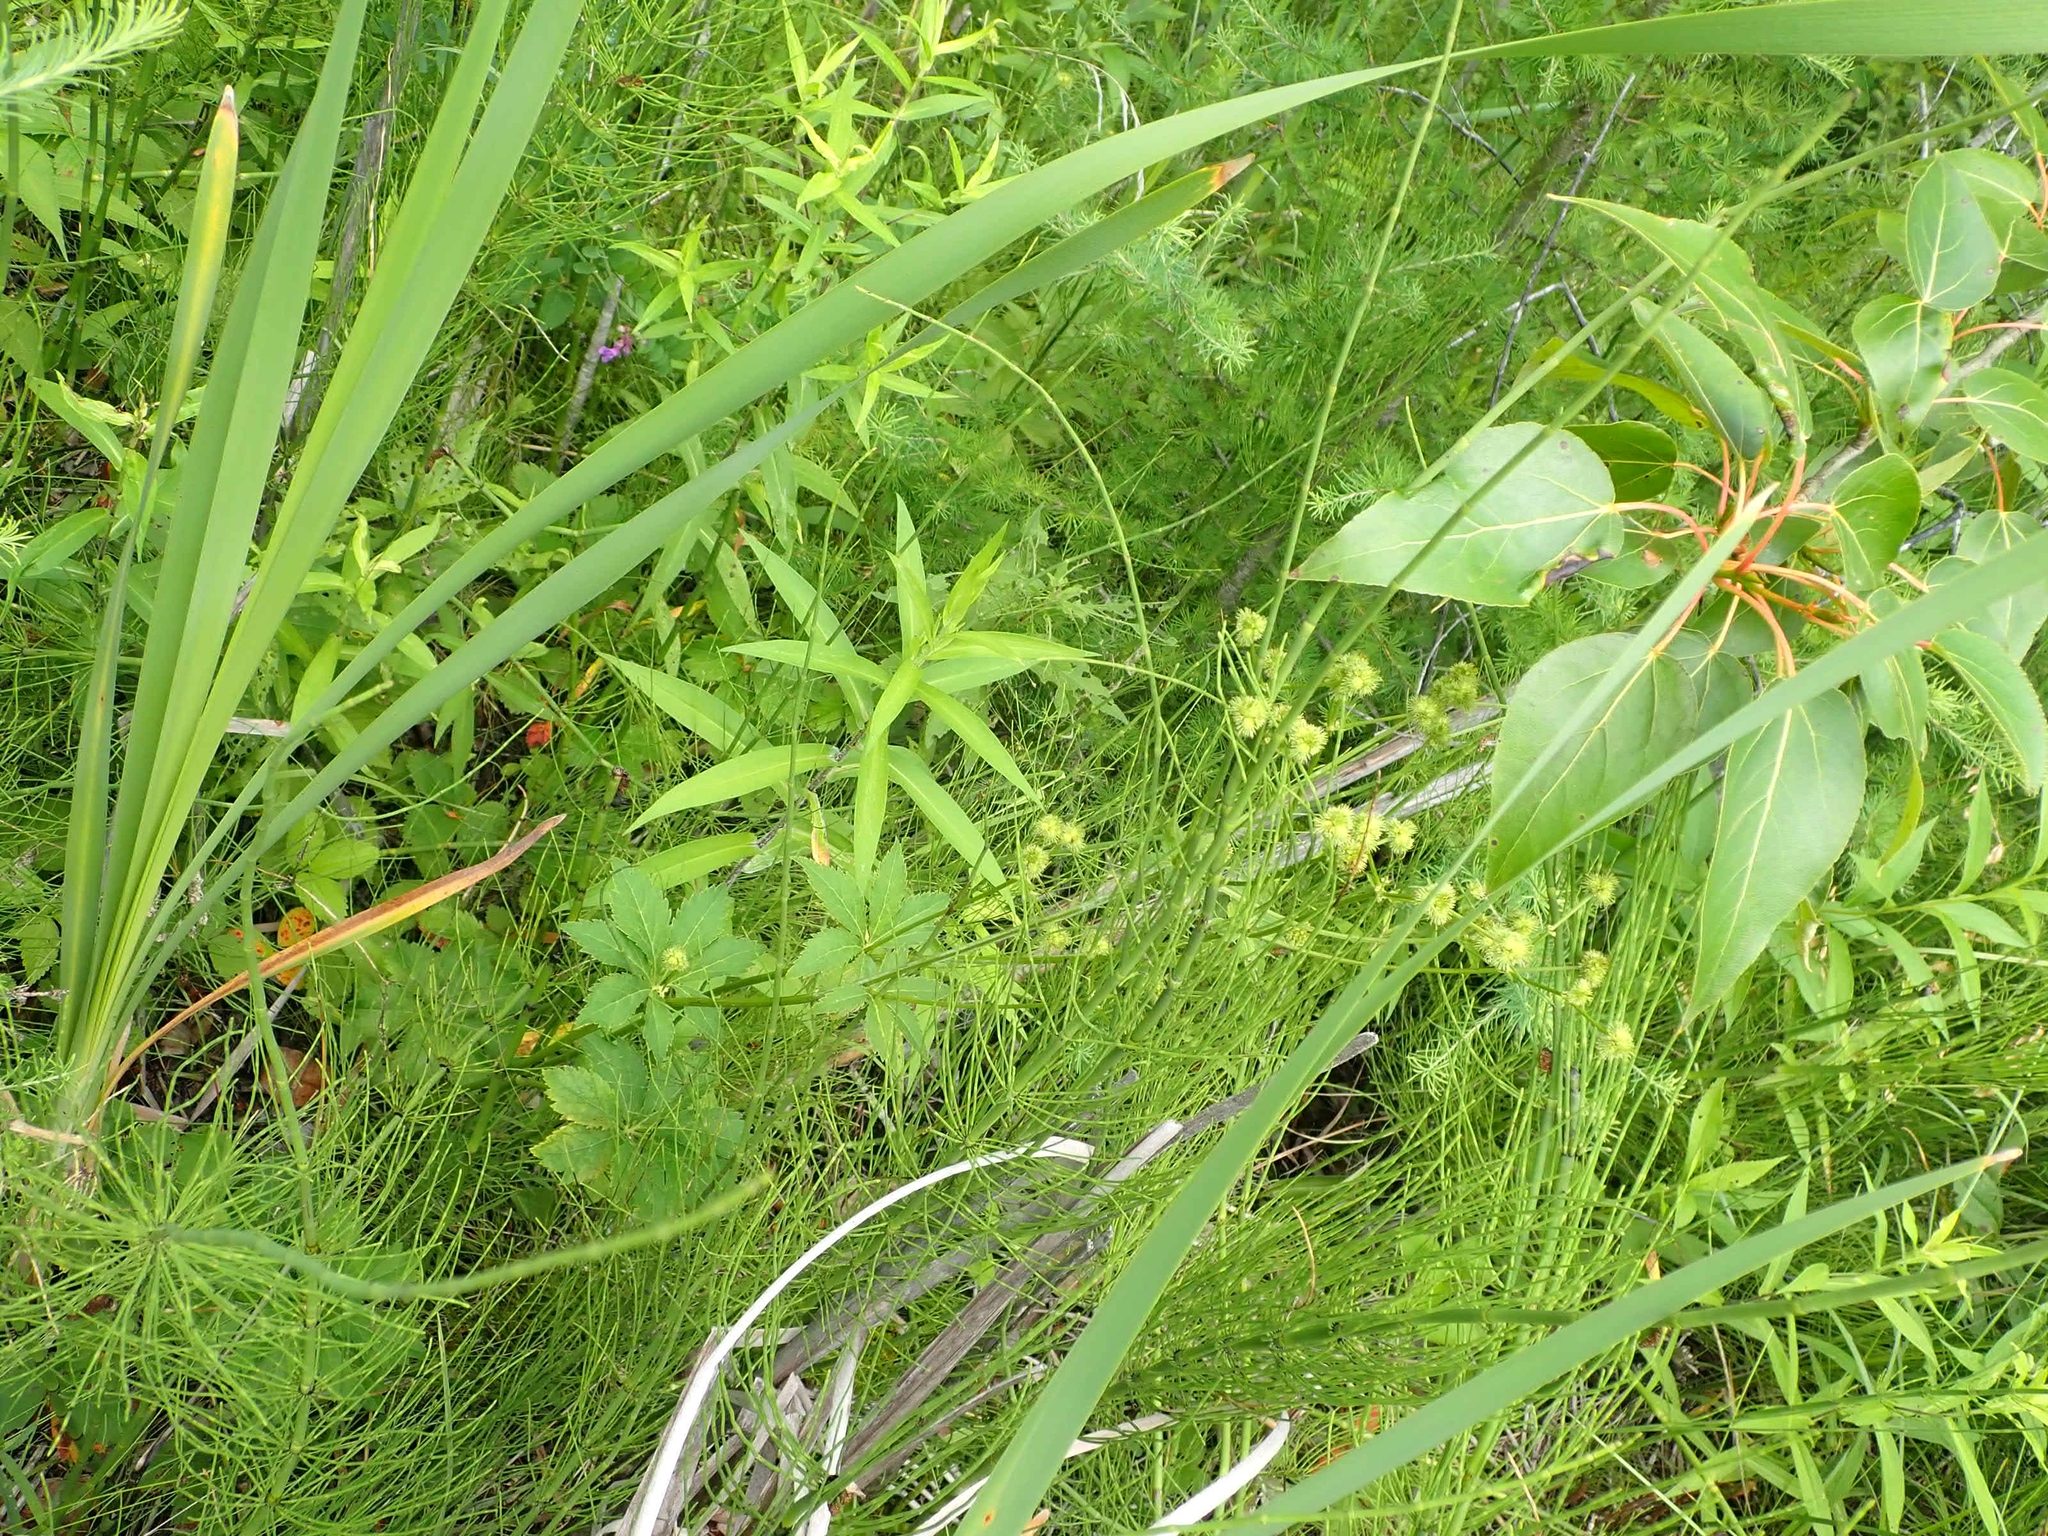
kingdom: Plantae
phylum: Tracheophyta
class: Magnoliopsida
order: Apiales
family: Apiaceae
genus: Sanicula
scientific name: Sanicula marilandica
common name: Black snakeroot
